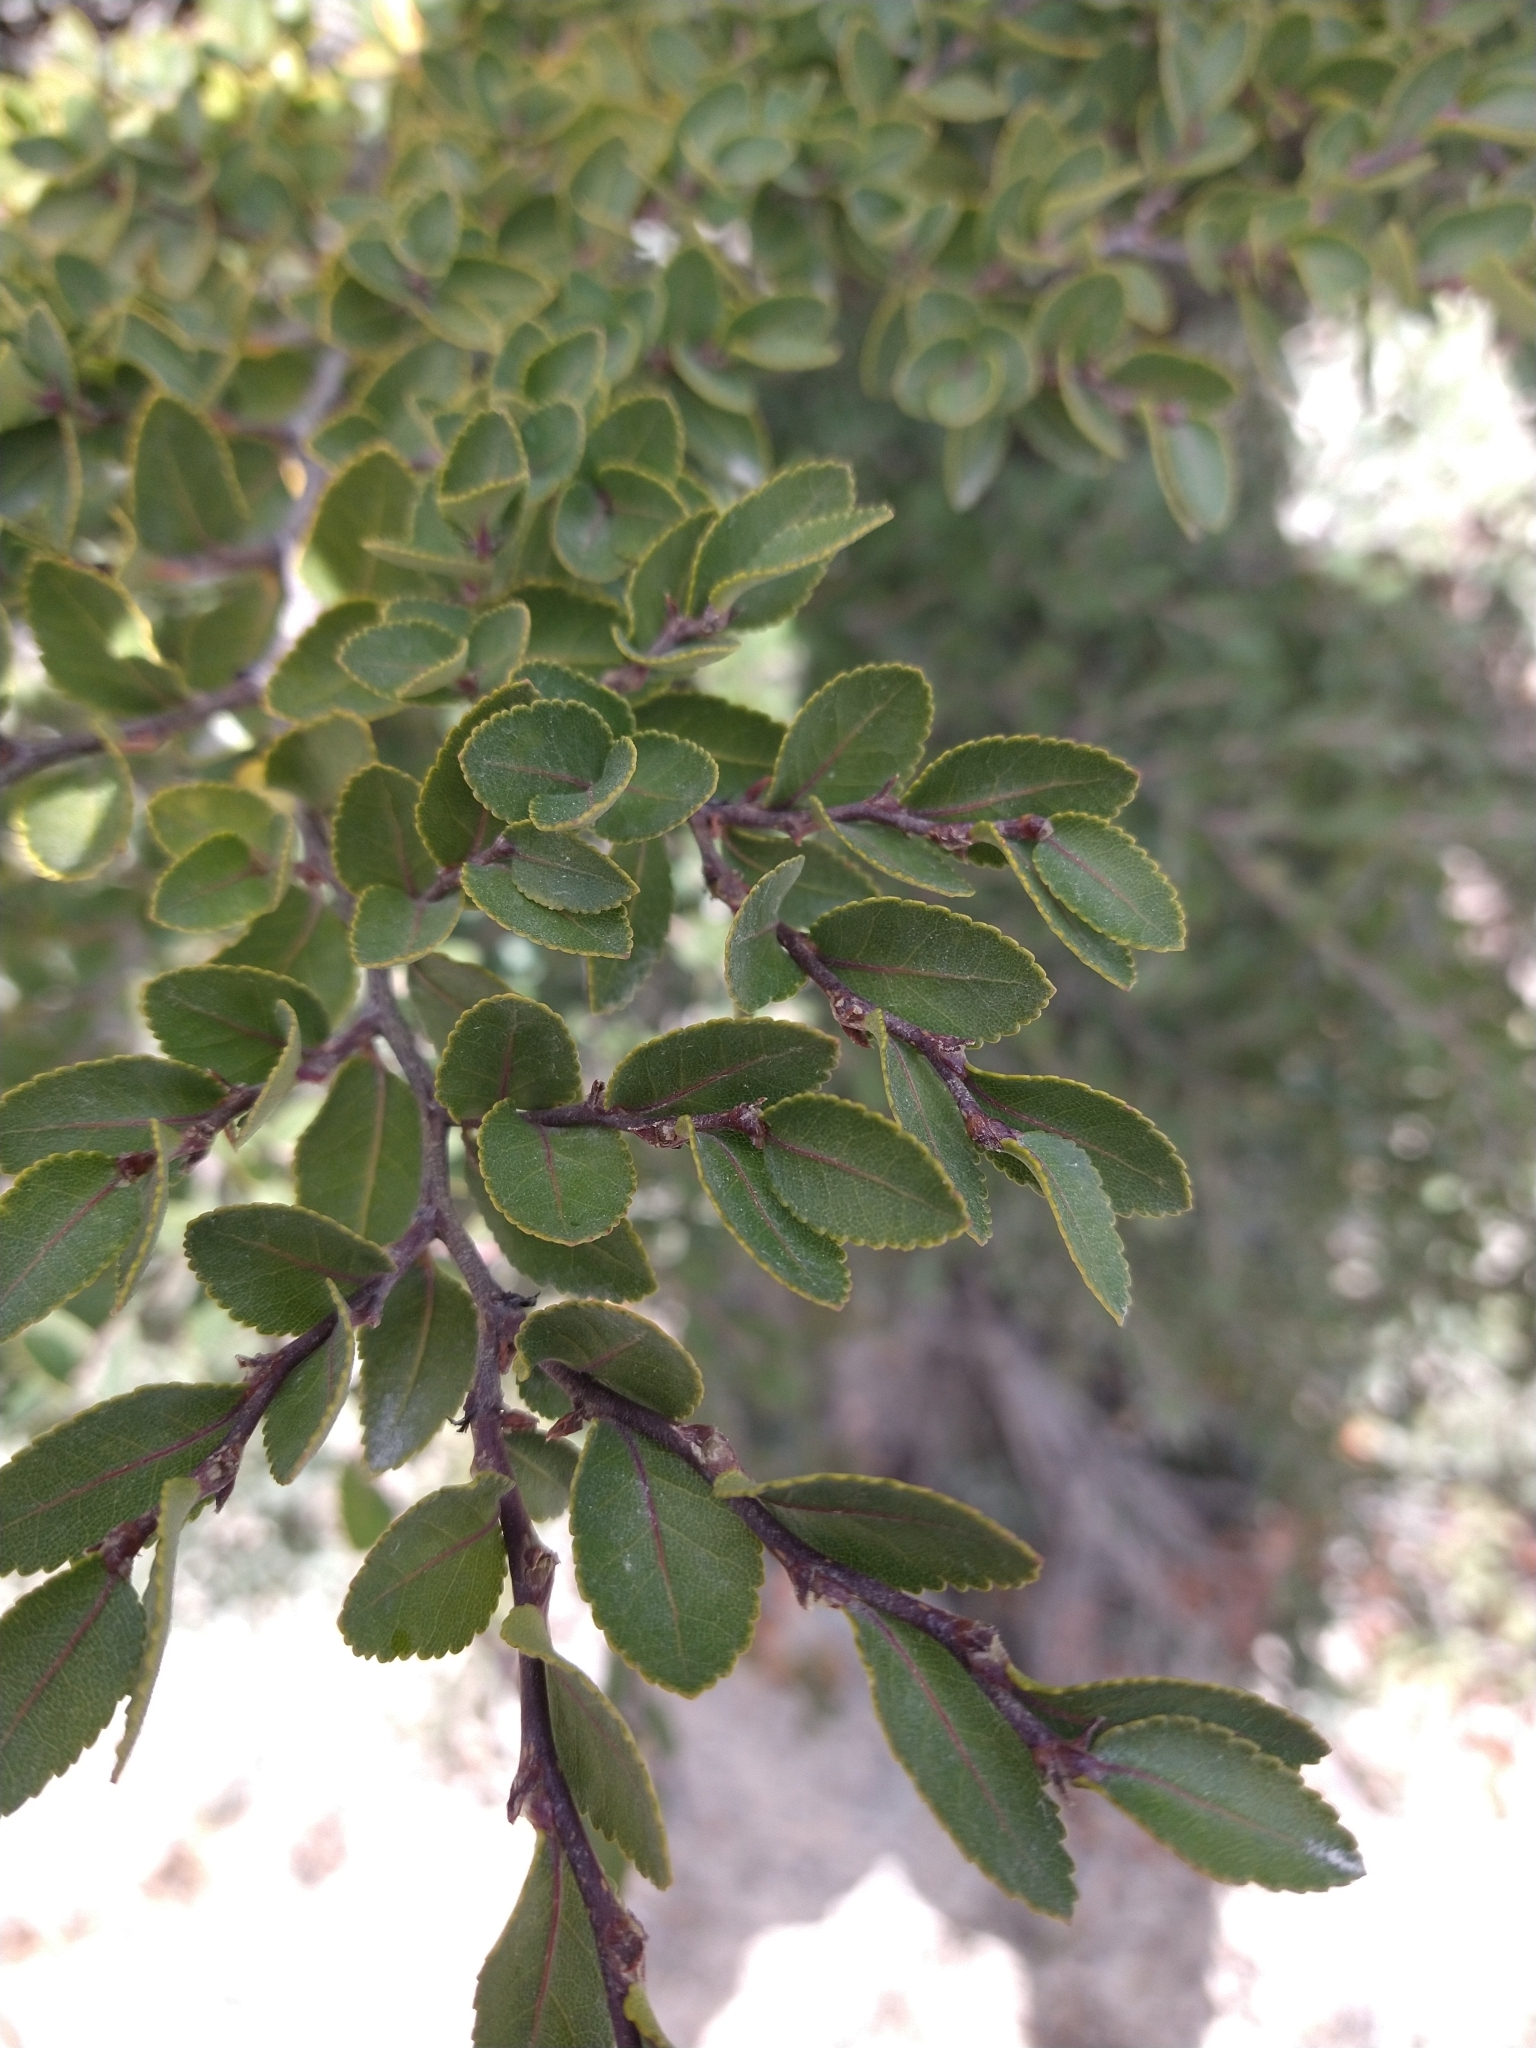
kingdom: Plantae
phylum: Tracheophyta
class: Magnoliopsida
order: Fagales
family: Nothofagaceae
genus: Nothofagus
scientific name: Nothofagus betuloides
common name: Magellan's beech
